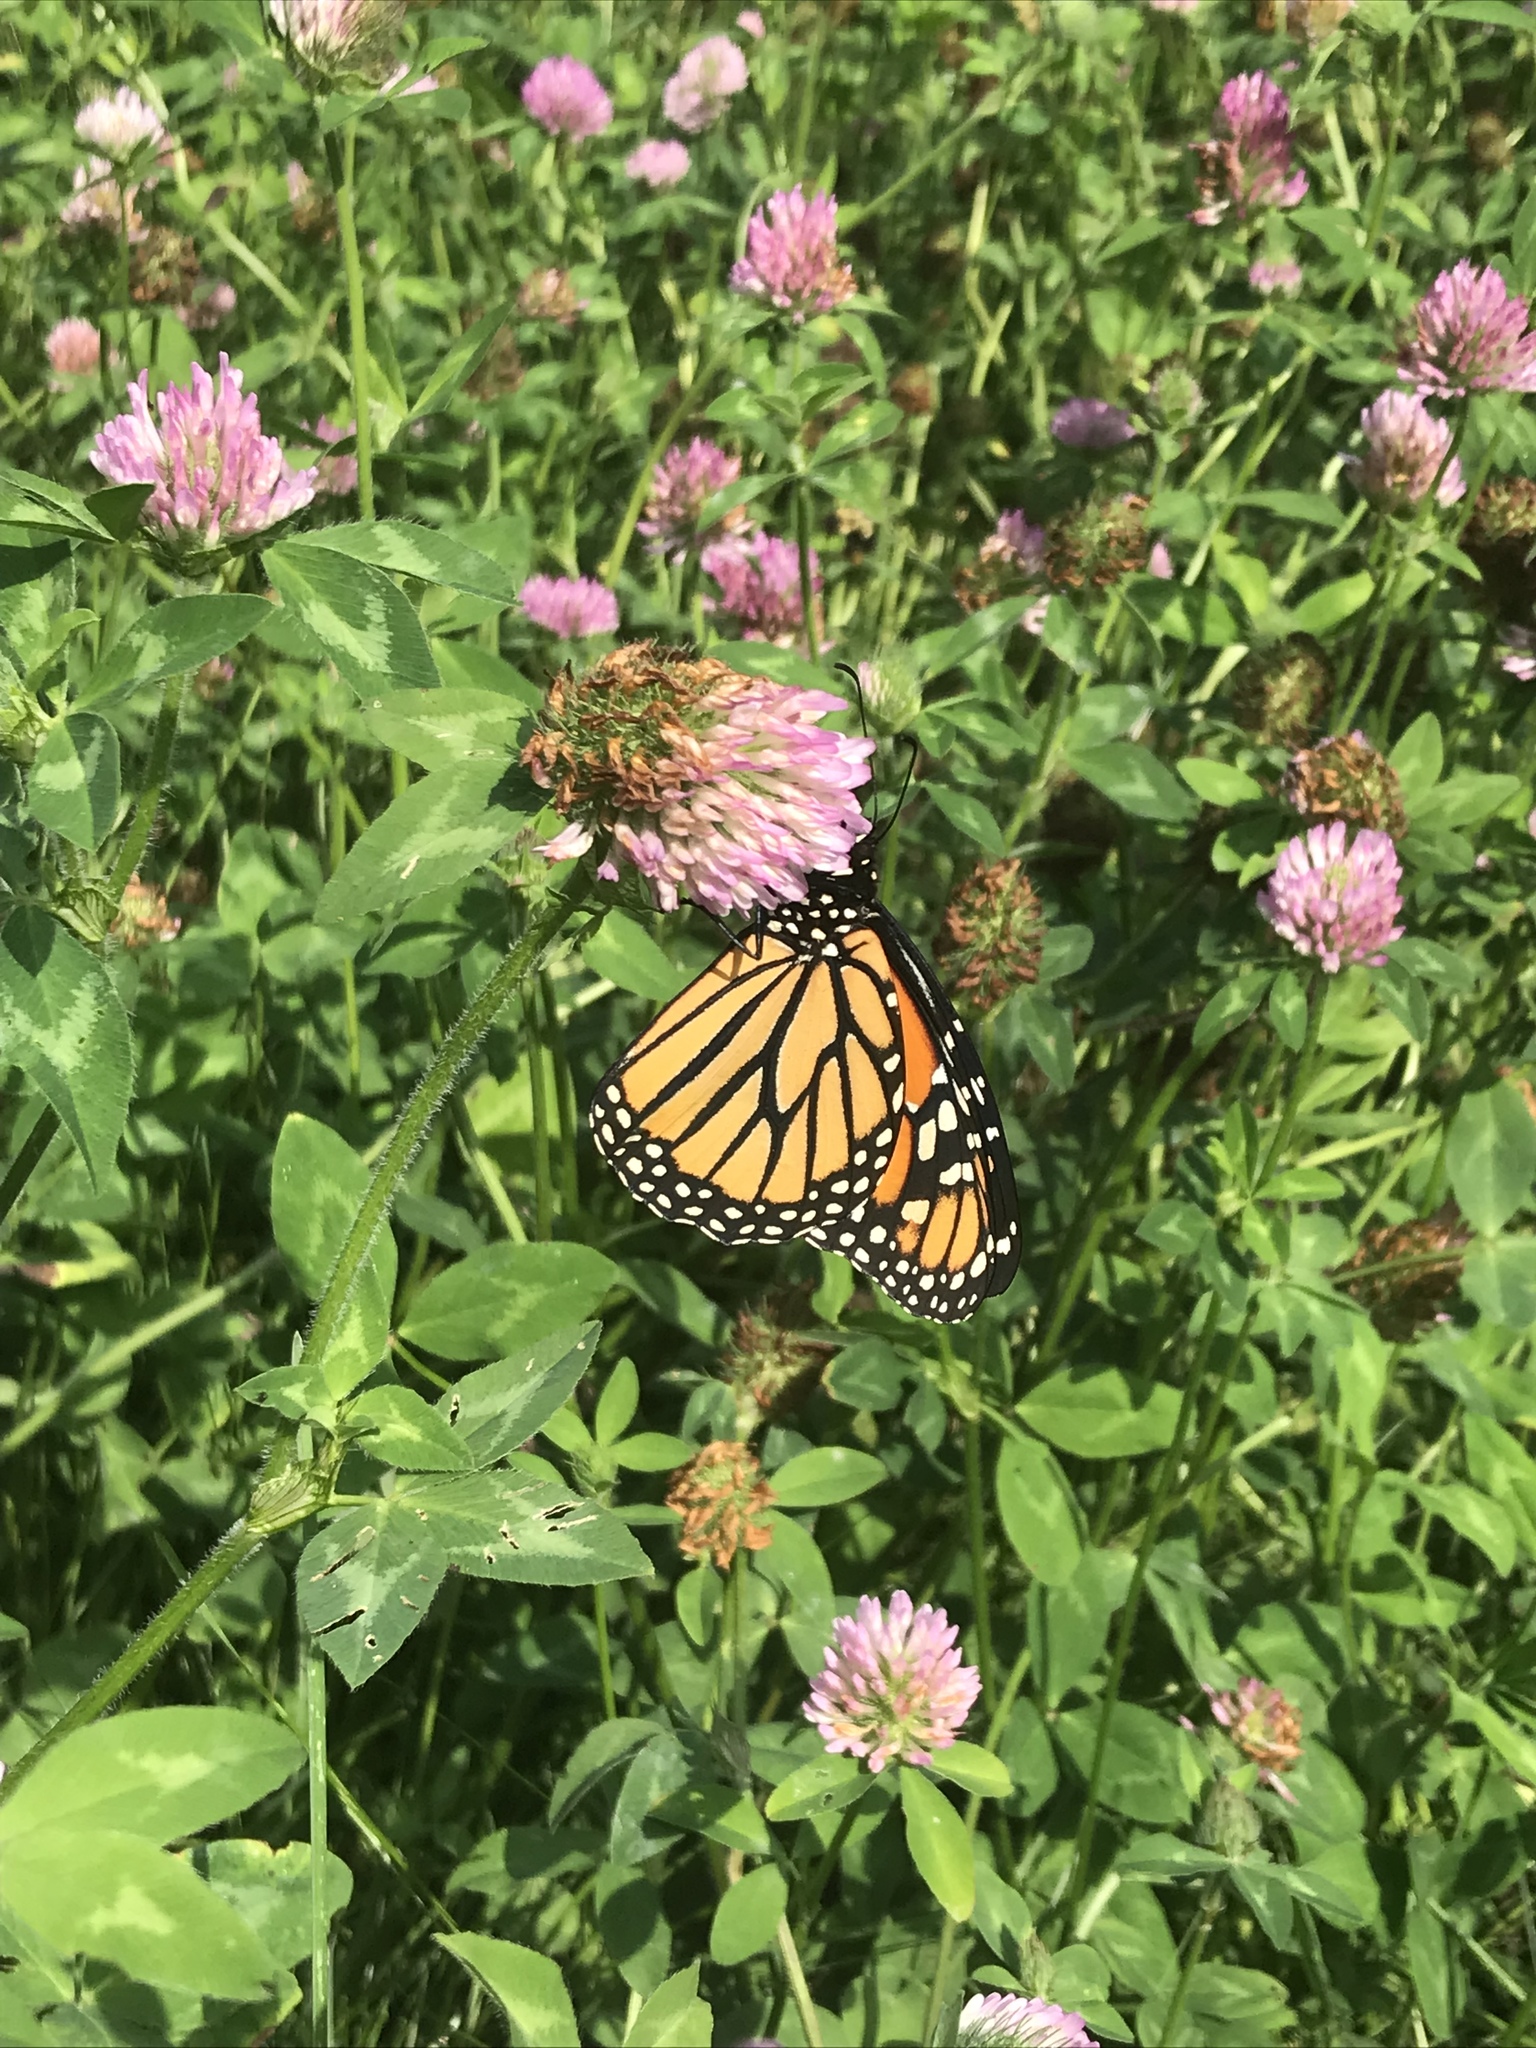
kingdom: Animalia
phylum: Arthropoda
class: Insecta
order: Lepidoptera
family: Nymphalidae
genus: Danaus
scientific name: Danaus plexippus
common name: Monarch
